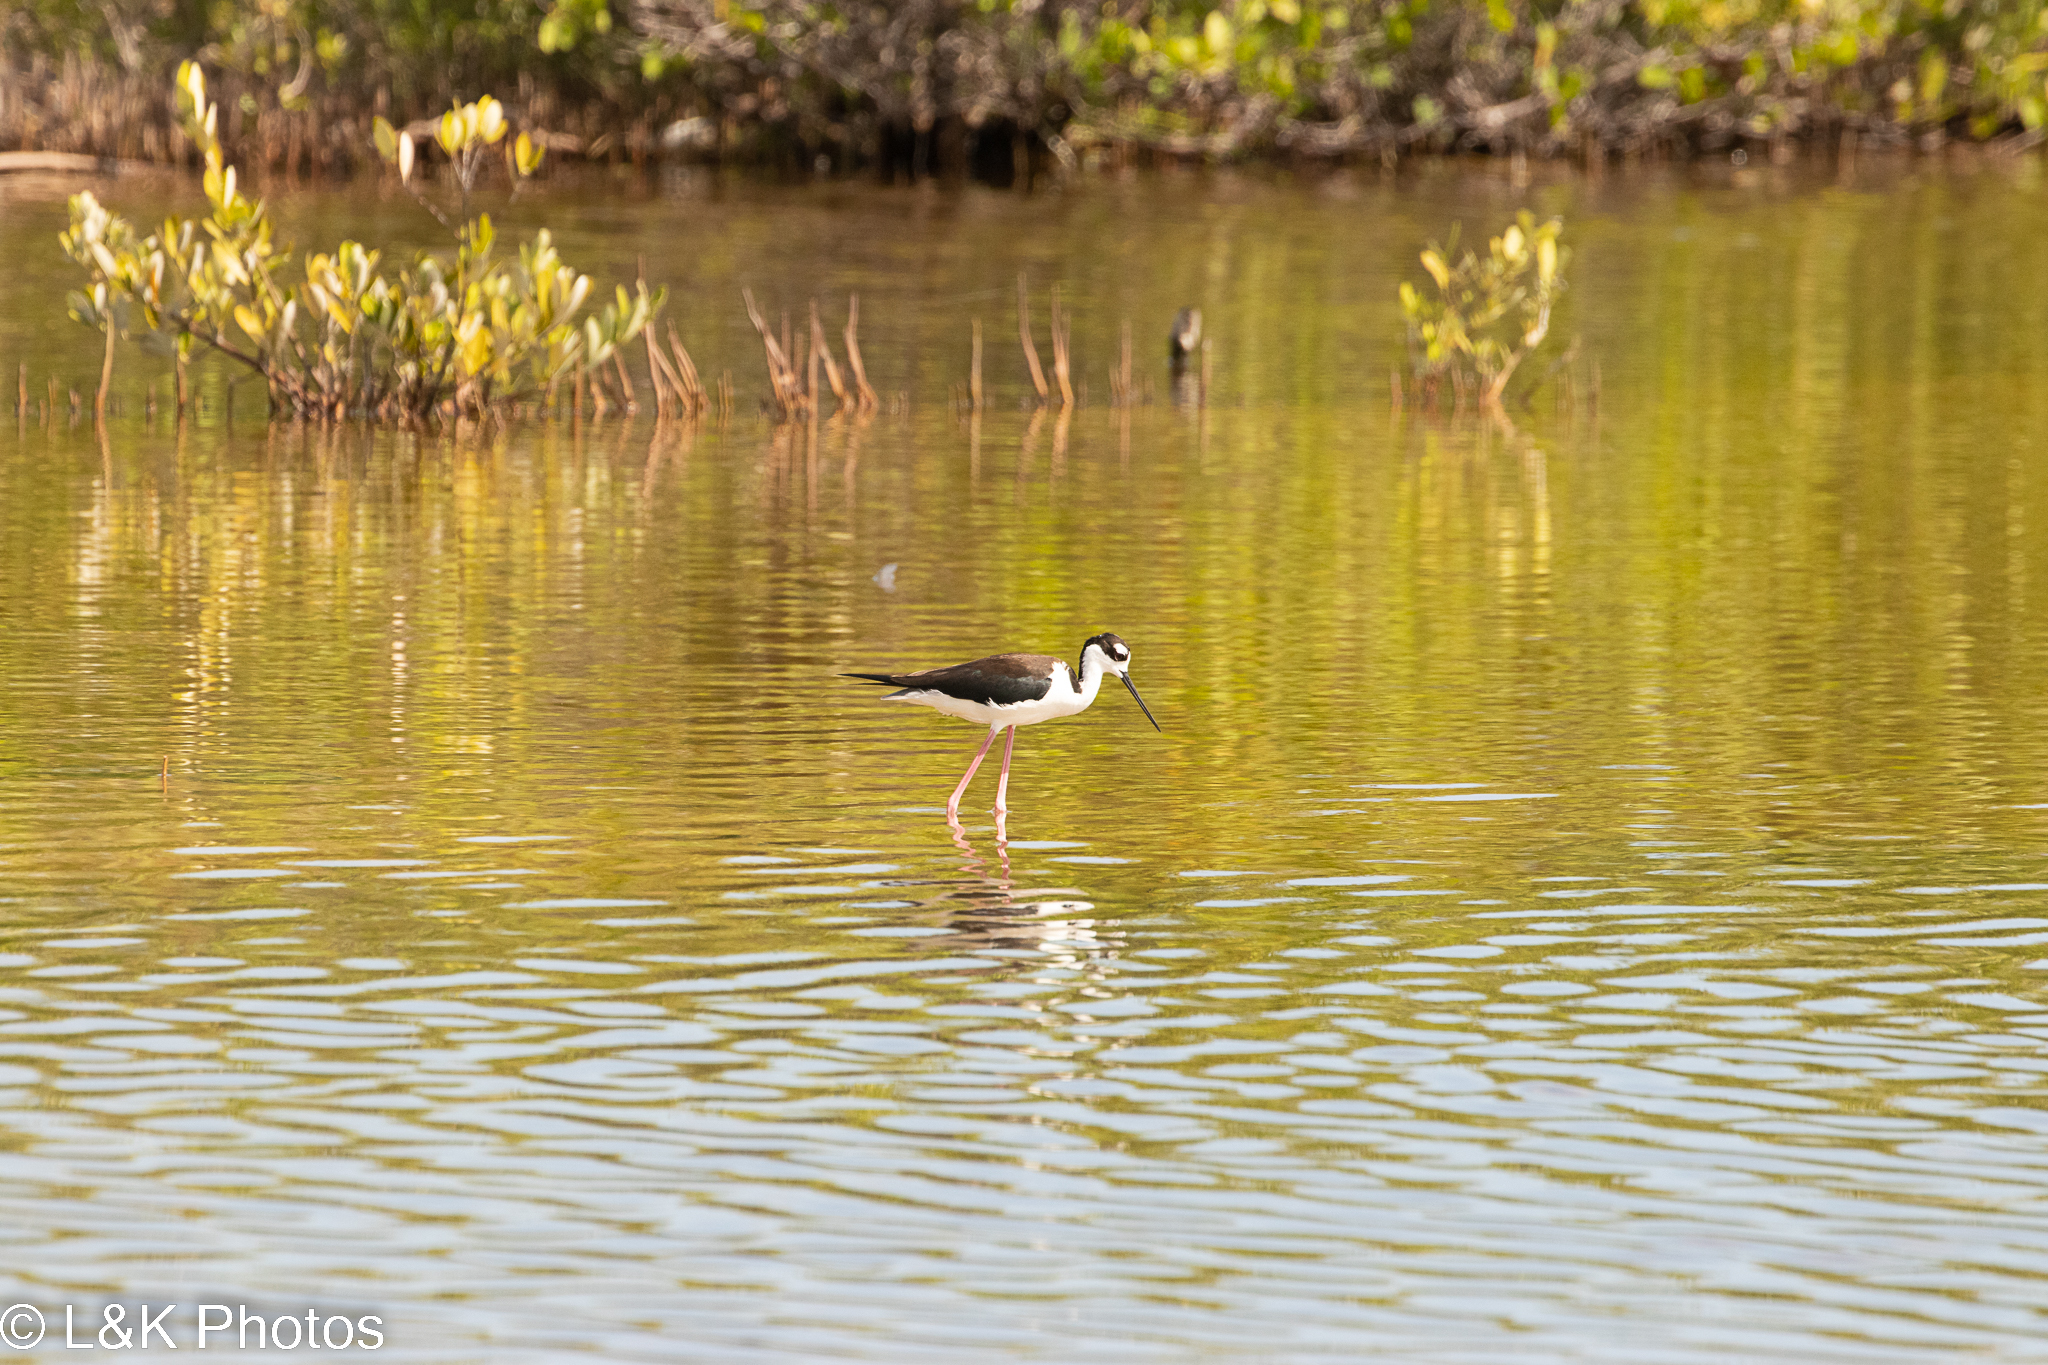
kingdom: Animalia
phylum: Chordata
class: Aves
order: Charadriiformes
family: Recurvirostridae
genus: Himantopus
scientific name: Himantopus mexicanus
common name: Black-necked stilt
